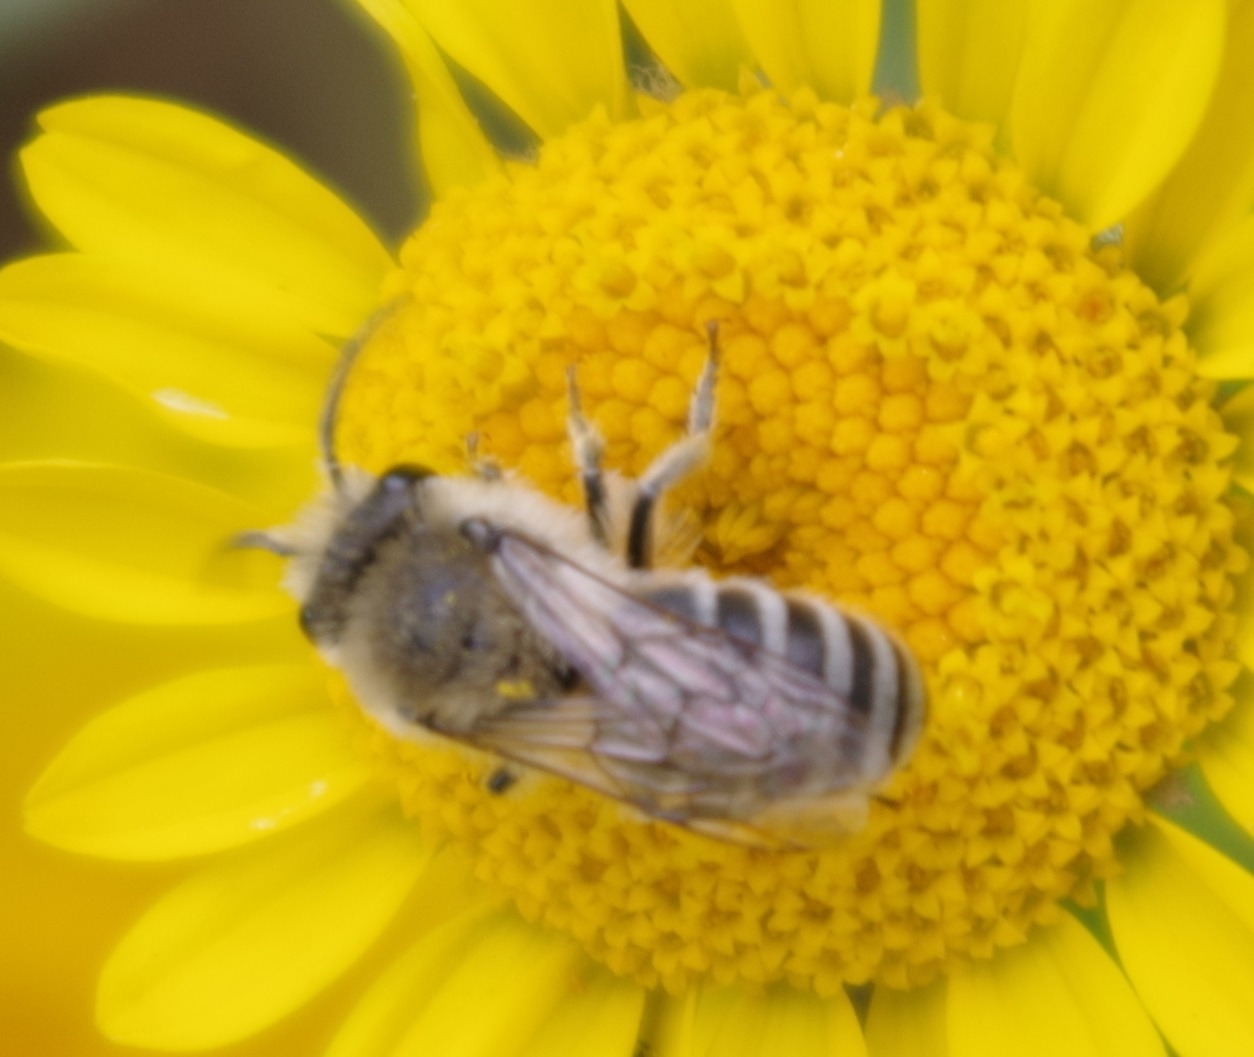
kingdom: Animalia
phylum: Arthropoda
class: Insecta
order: Hymenoptera
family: Colletidae
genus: Colletes
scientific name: Colletes
